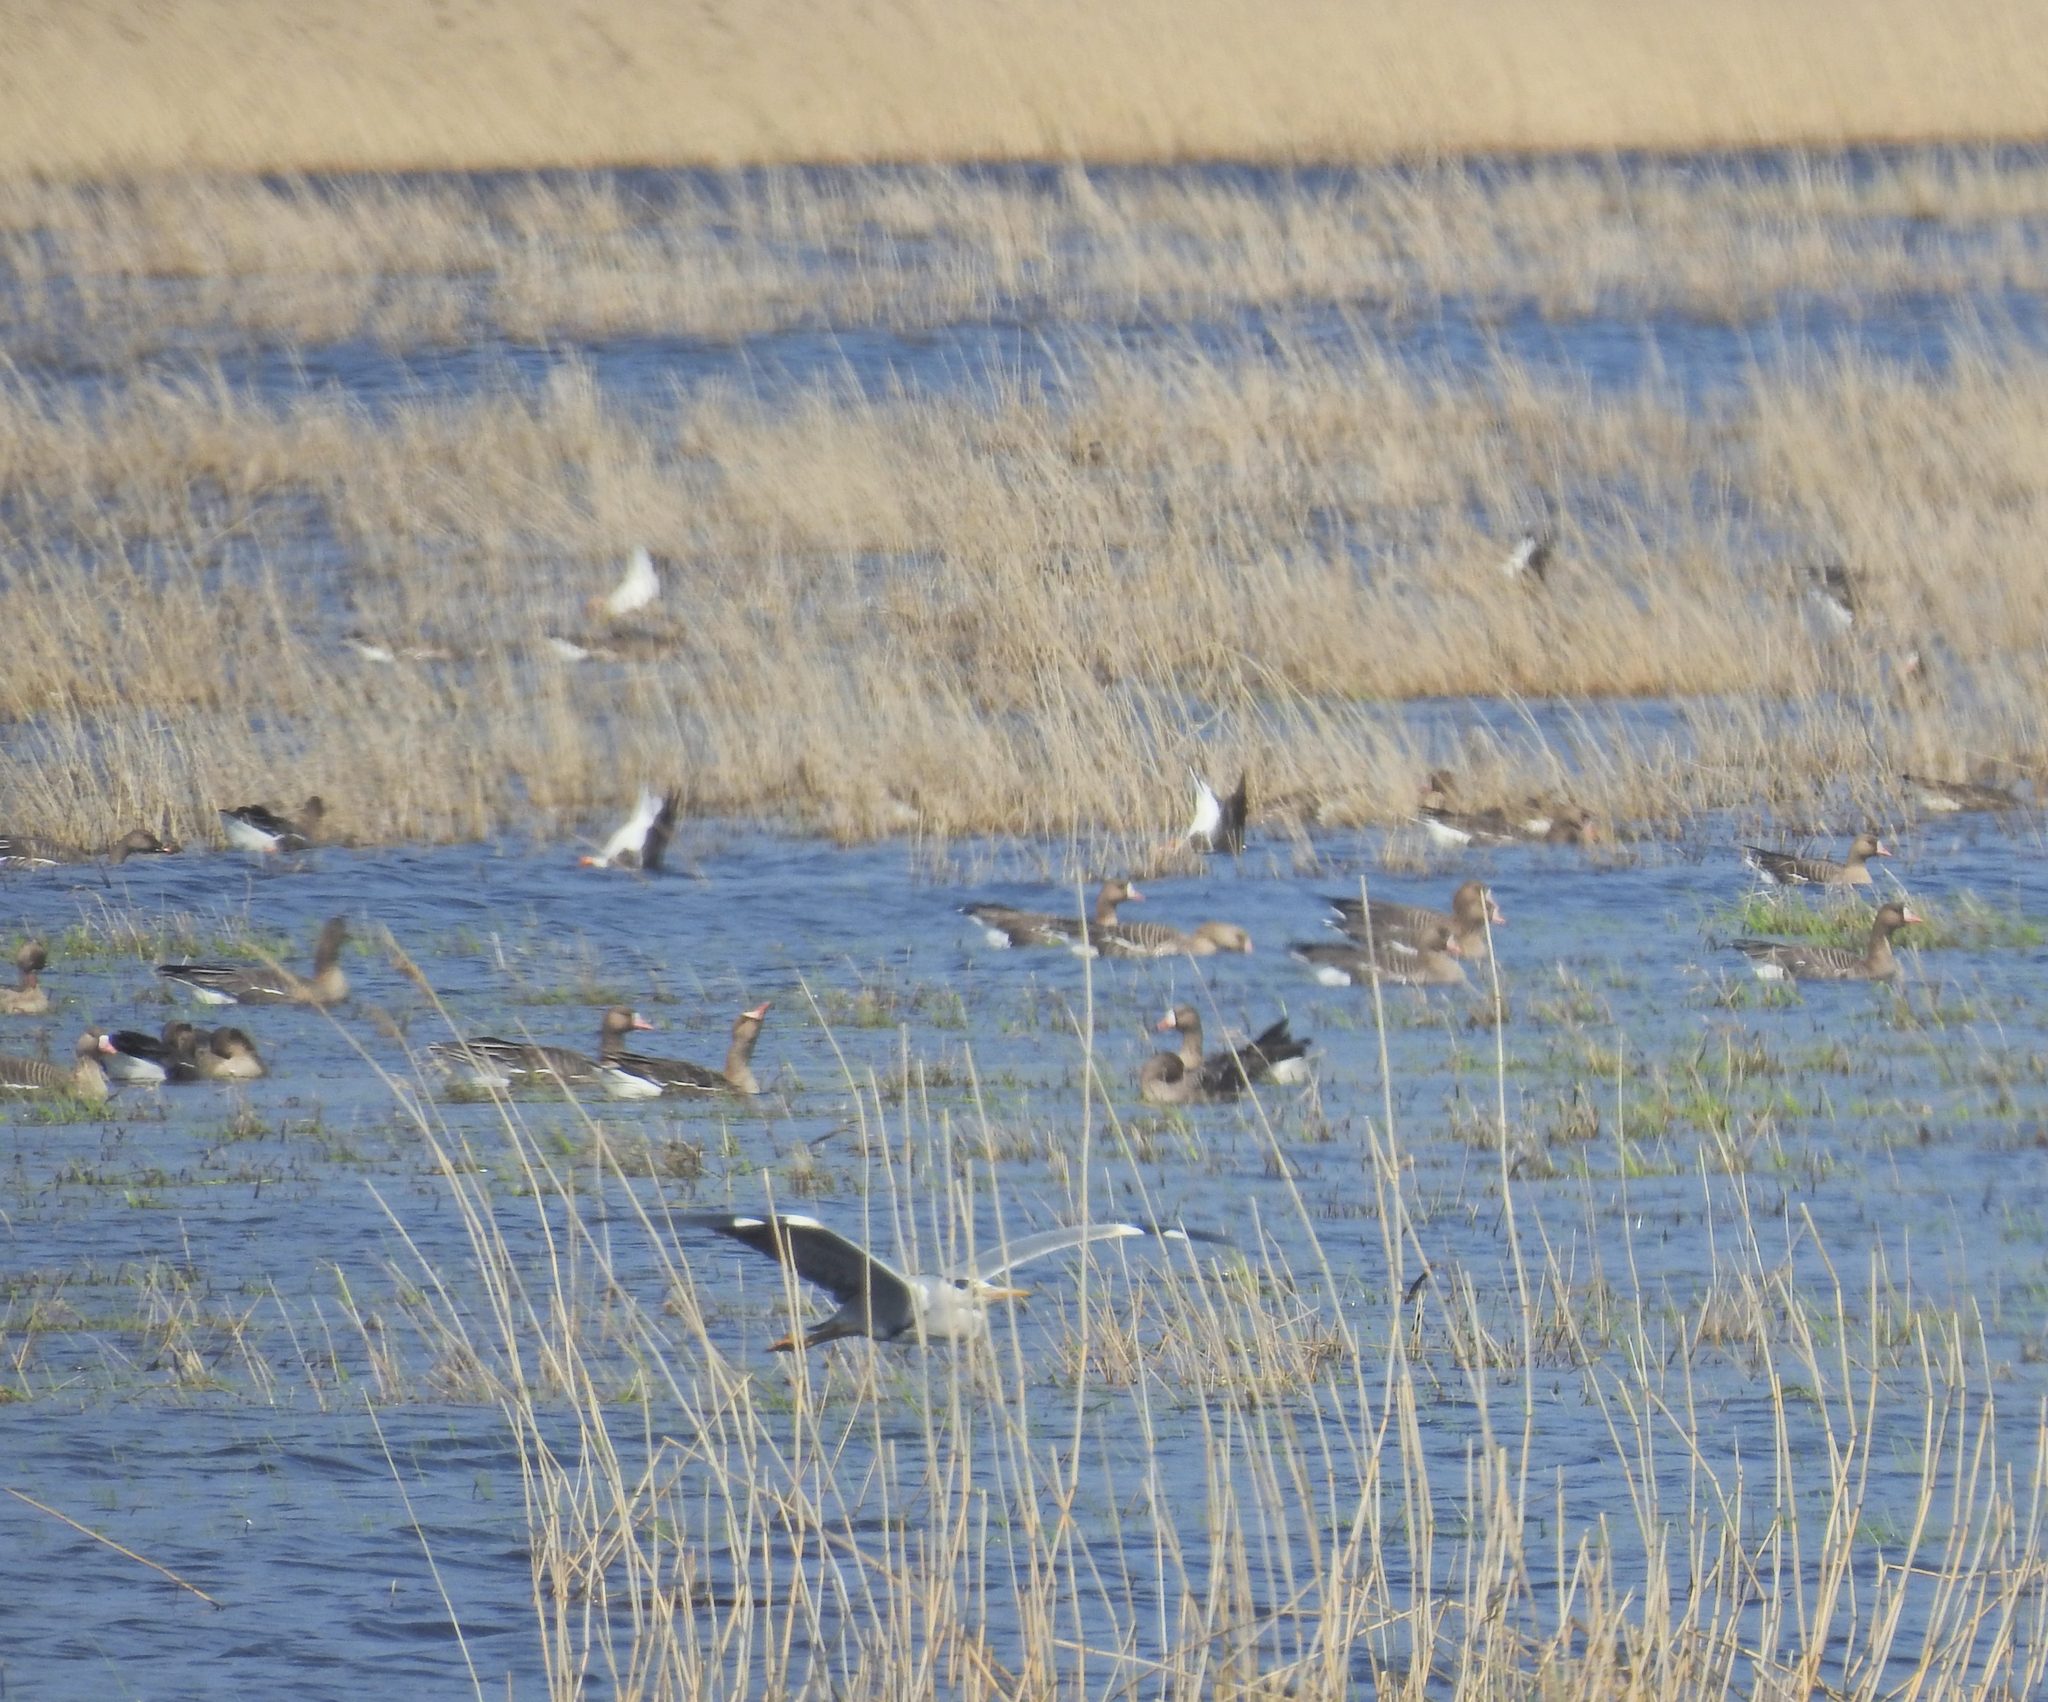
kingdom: Animalia
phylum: Chordata
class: Aves
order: Pelecaniformes
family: Ardeidae
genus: Ardea
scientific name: Ardea cinerea
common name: Grey heron
